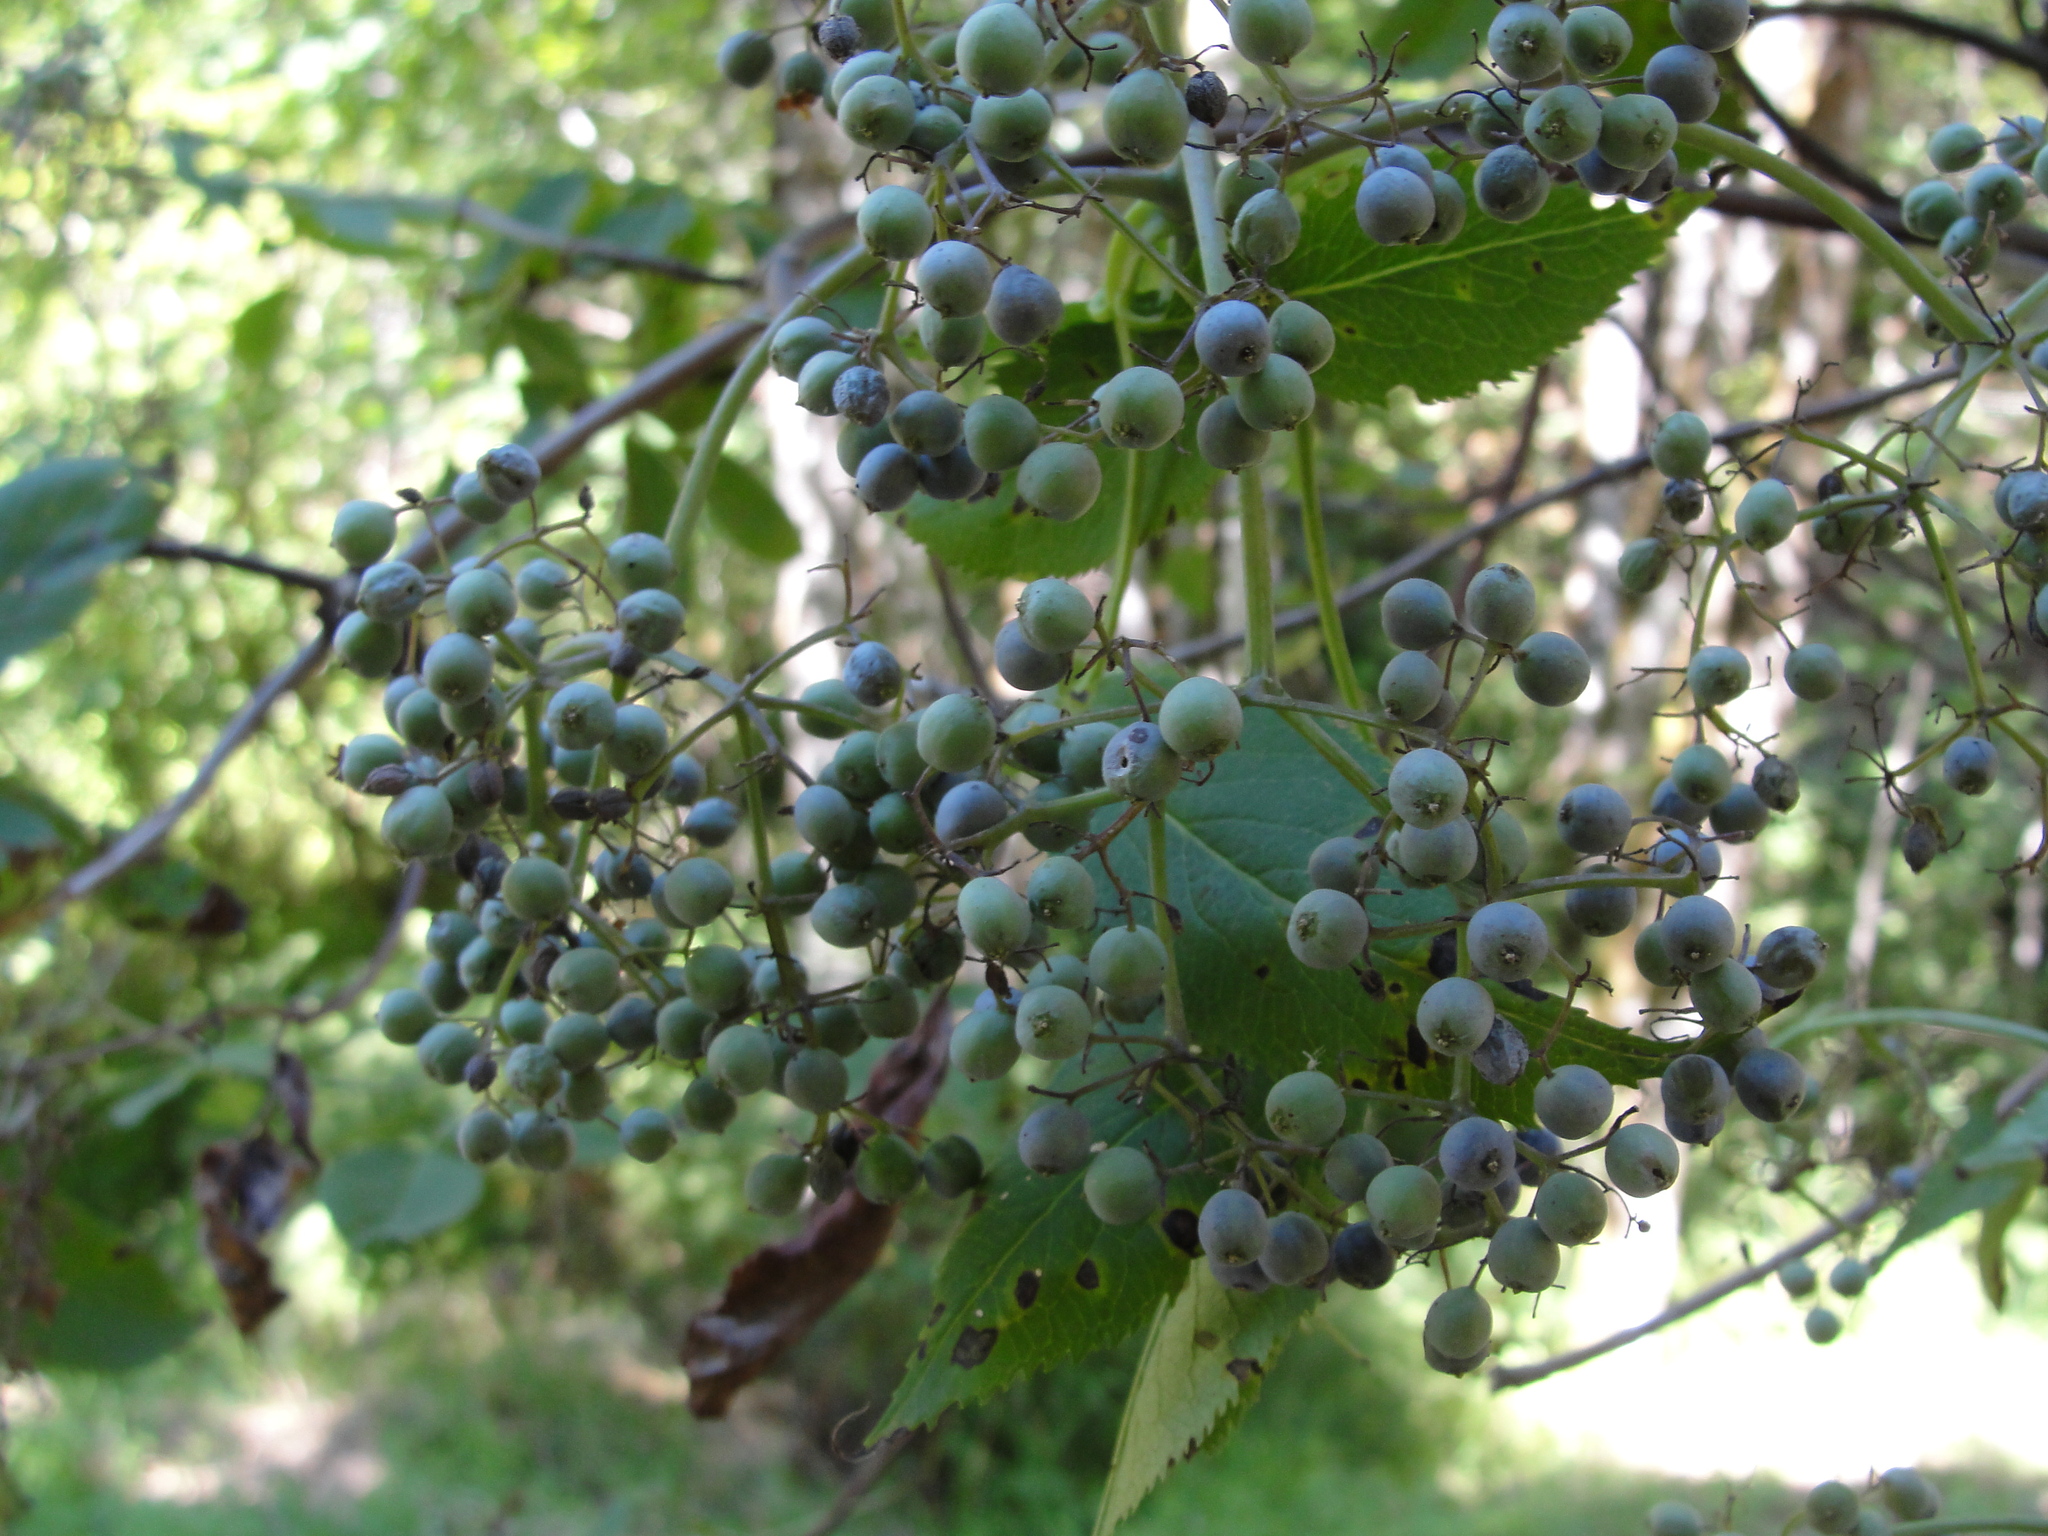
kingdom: Plantae
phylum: Tracheophyta
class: Magnoliopsida
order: Dipsacales
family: Viburnaceae
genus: Sambucus
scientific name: Sambucus cerulea
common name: Blue elder
